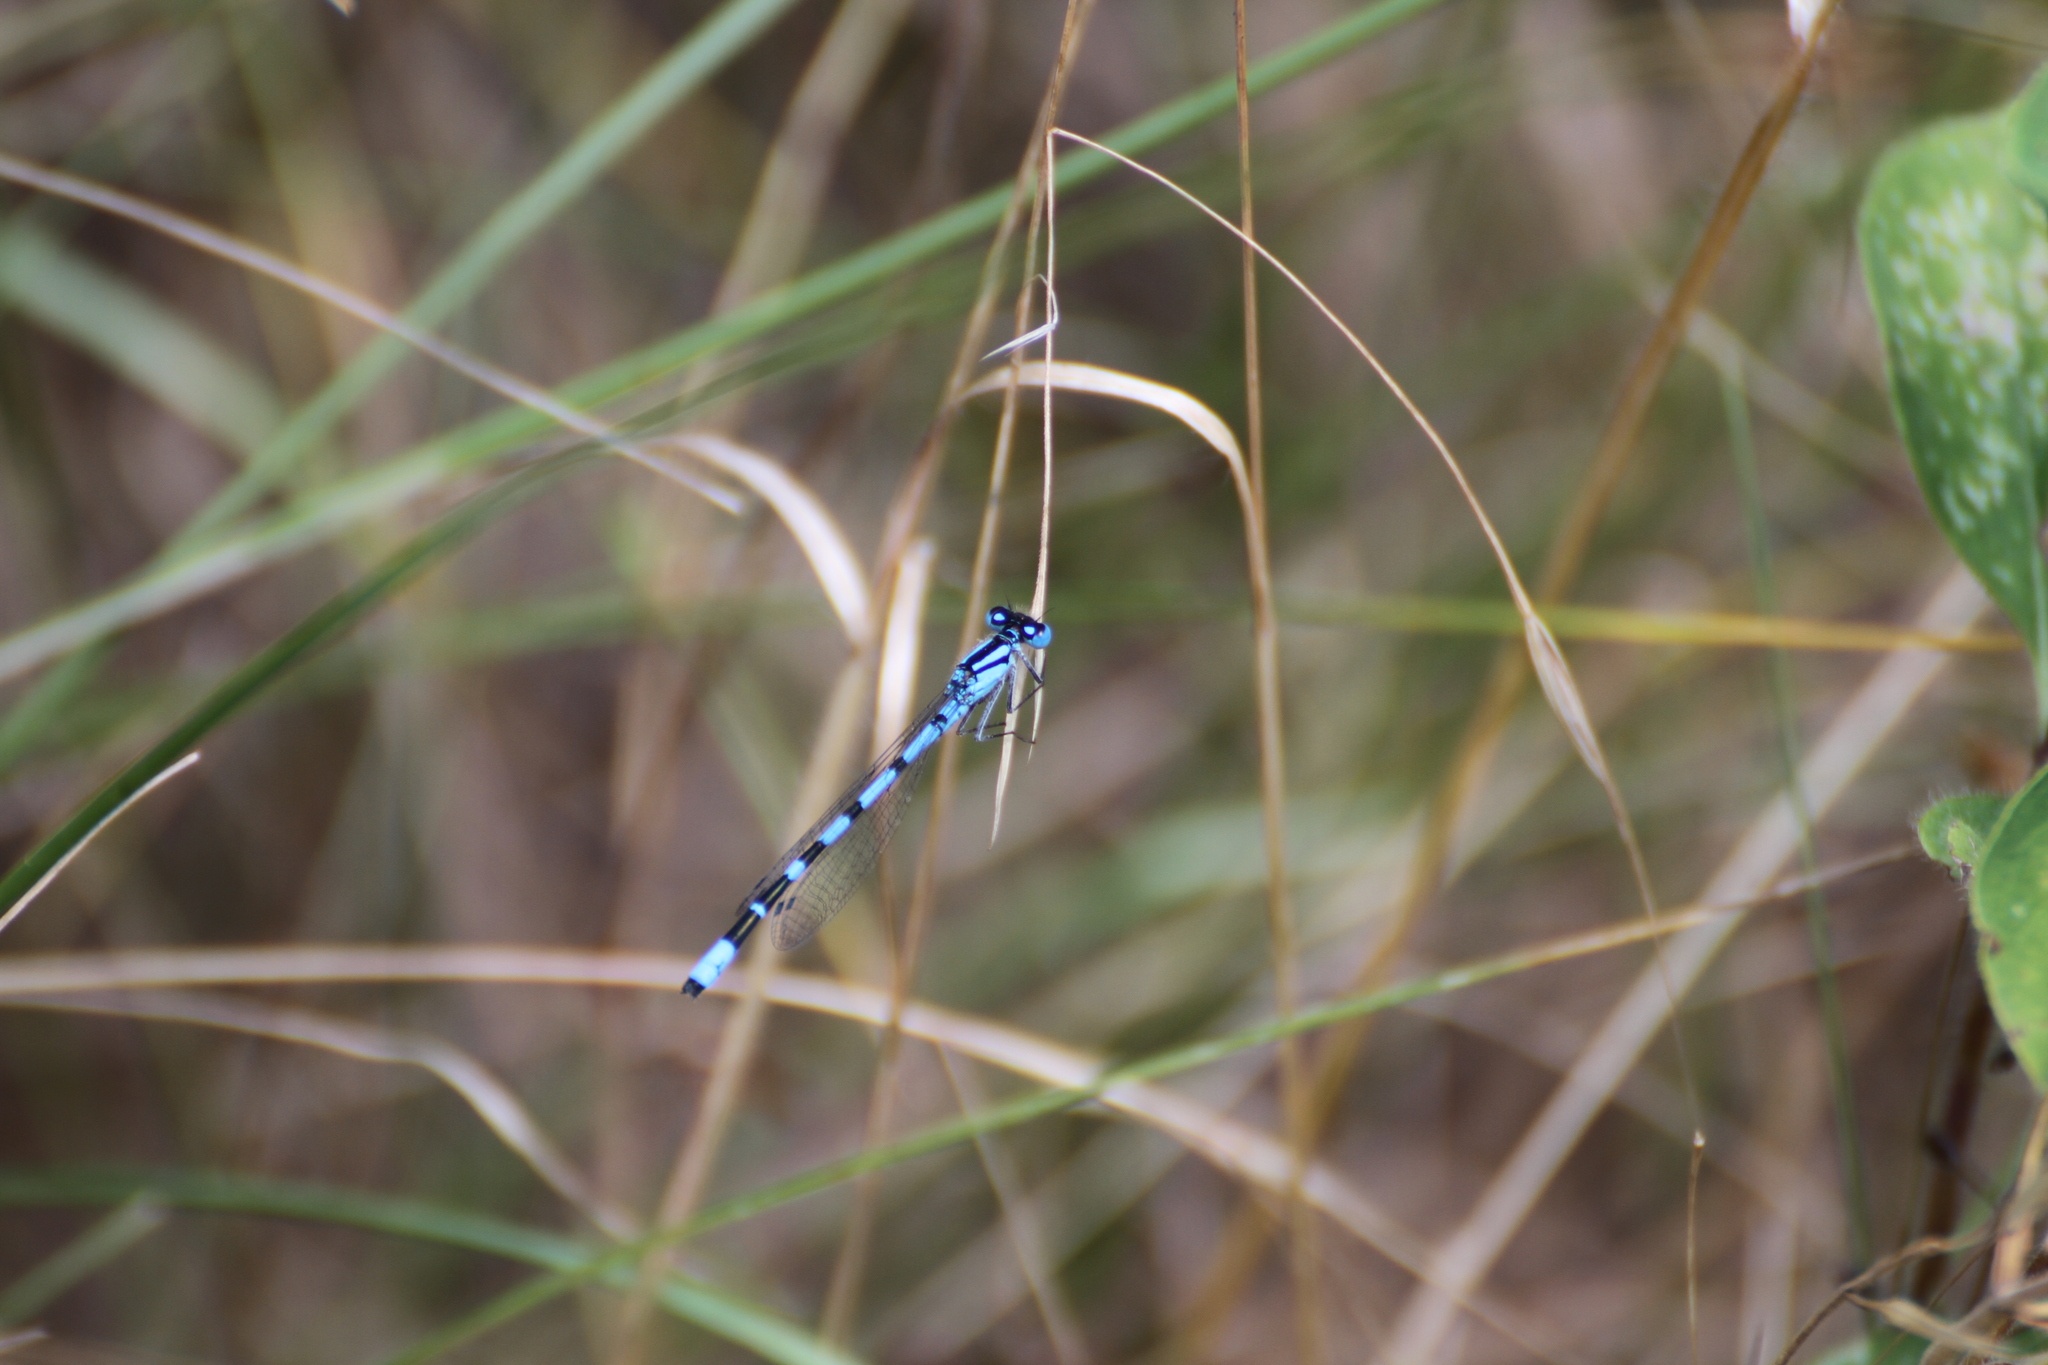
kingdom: Animalia
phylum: Arthropoda
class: Insecta
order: Odonata
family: Coenagrionidae
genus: Enallagma
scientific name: Enallagma cyathigerum
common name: Common blue damselfly
